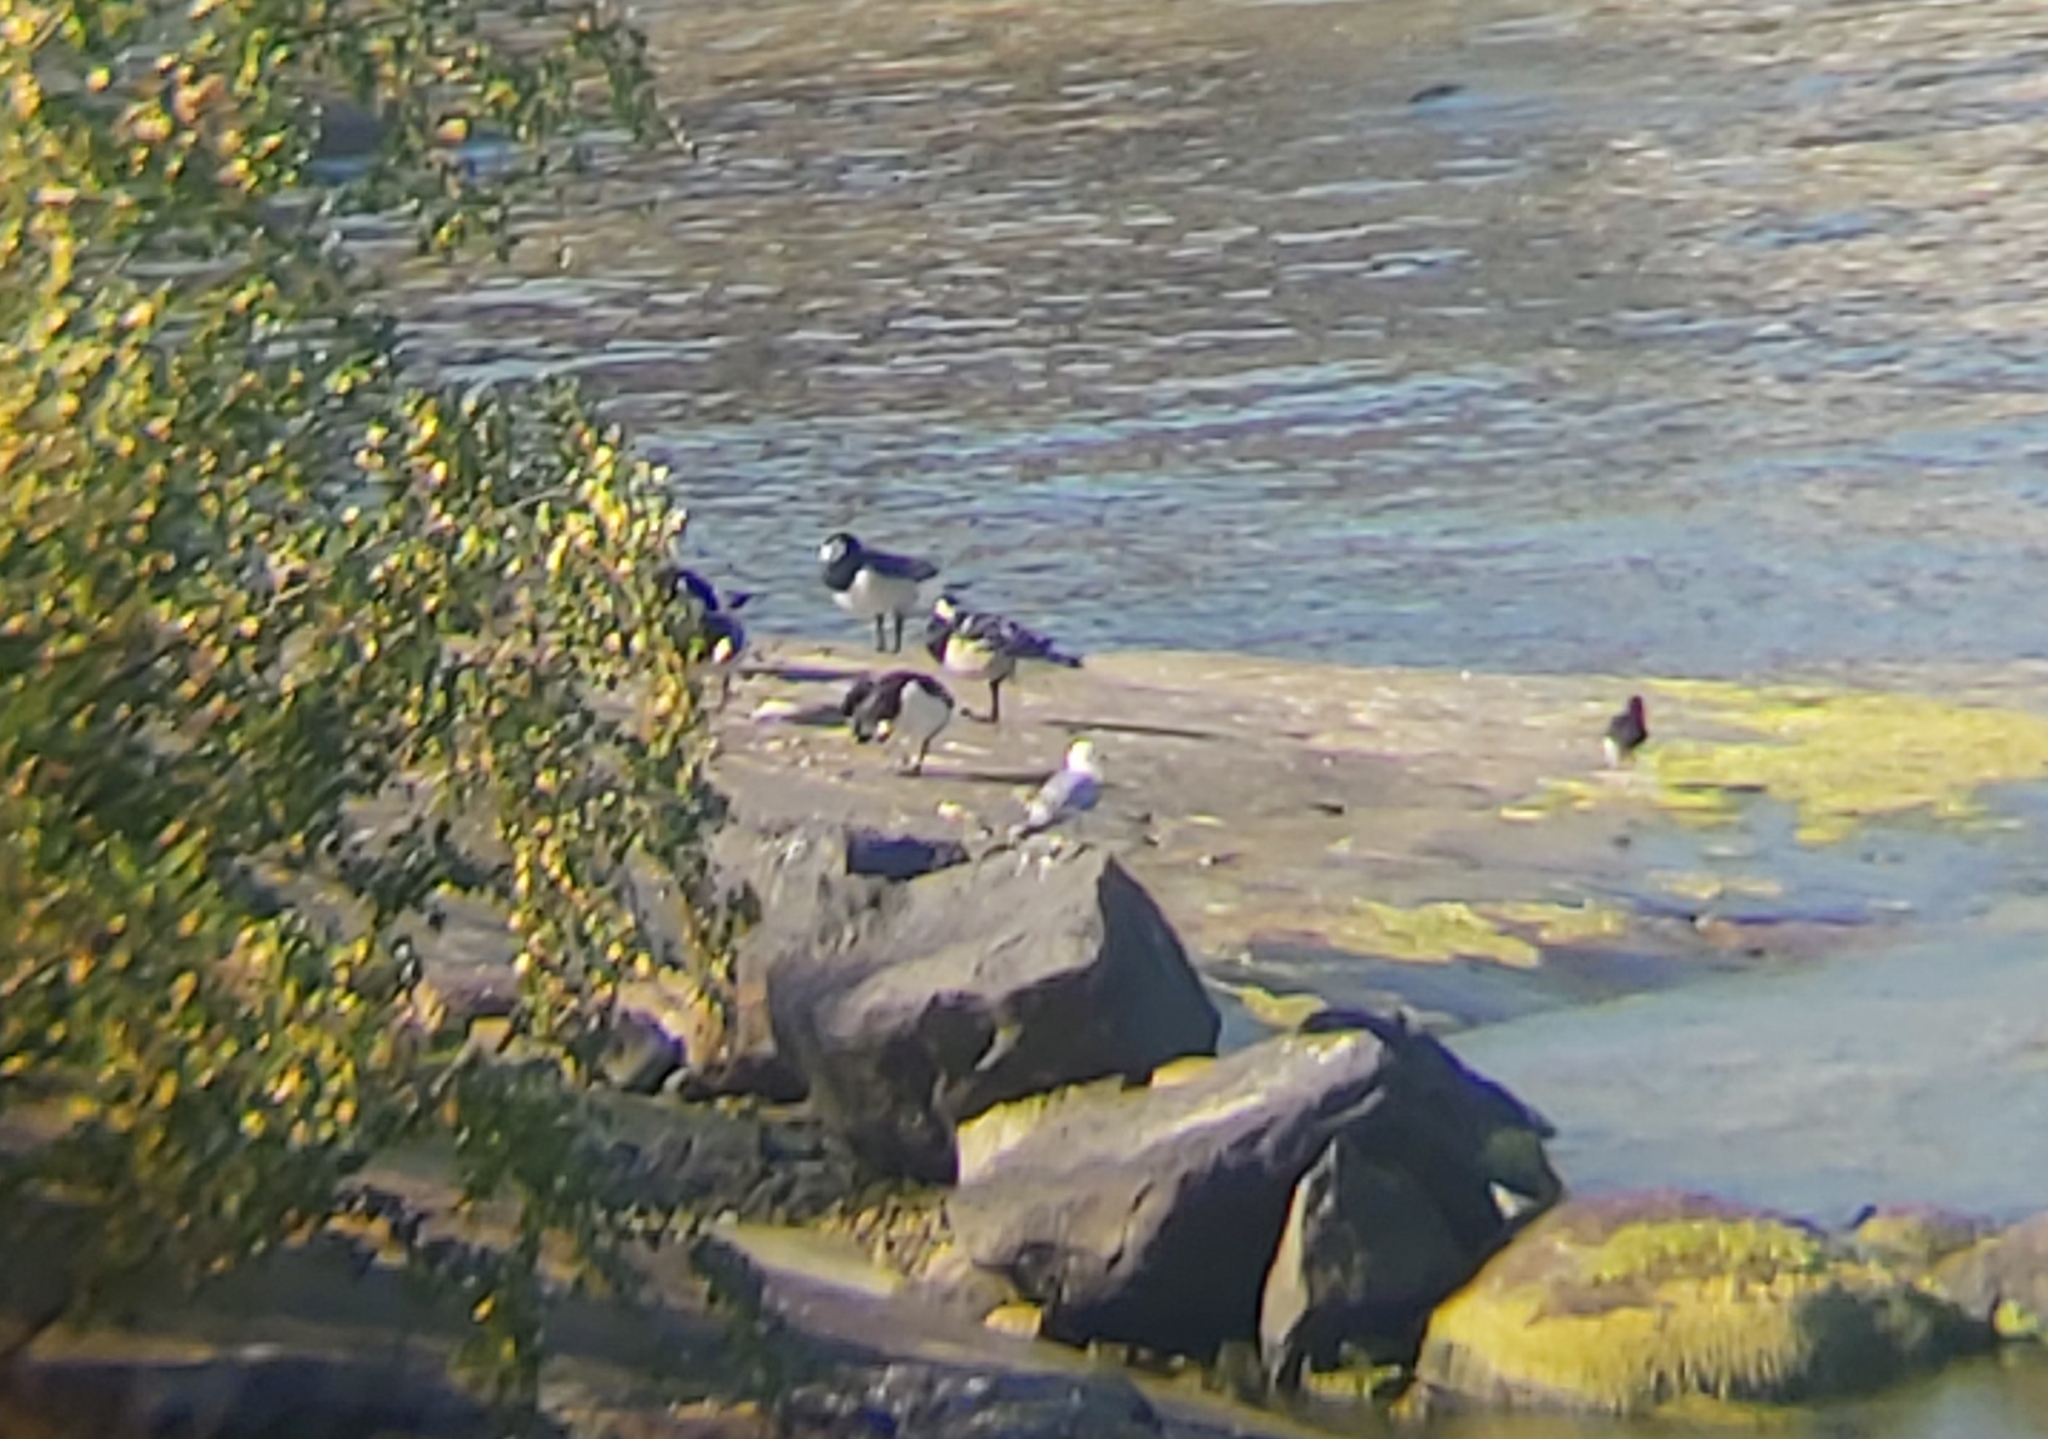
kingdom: Animalia
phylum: Chordata
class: Aves
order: Anseriformes
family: Anatidae
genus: Branta
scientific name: Branta leucopsis
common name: Barnacle goose
